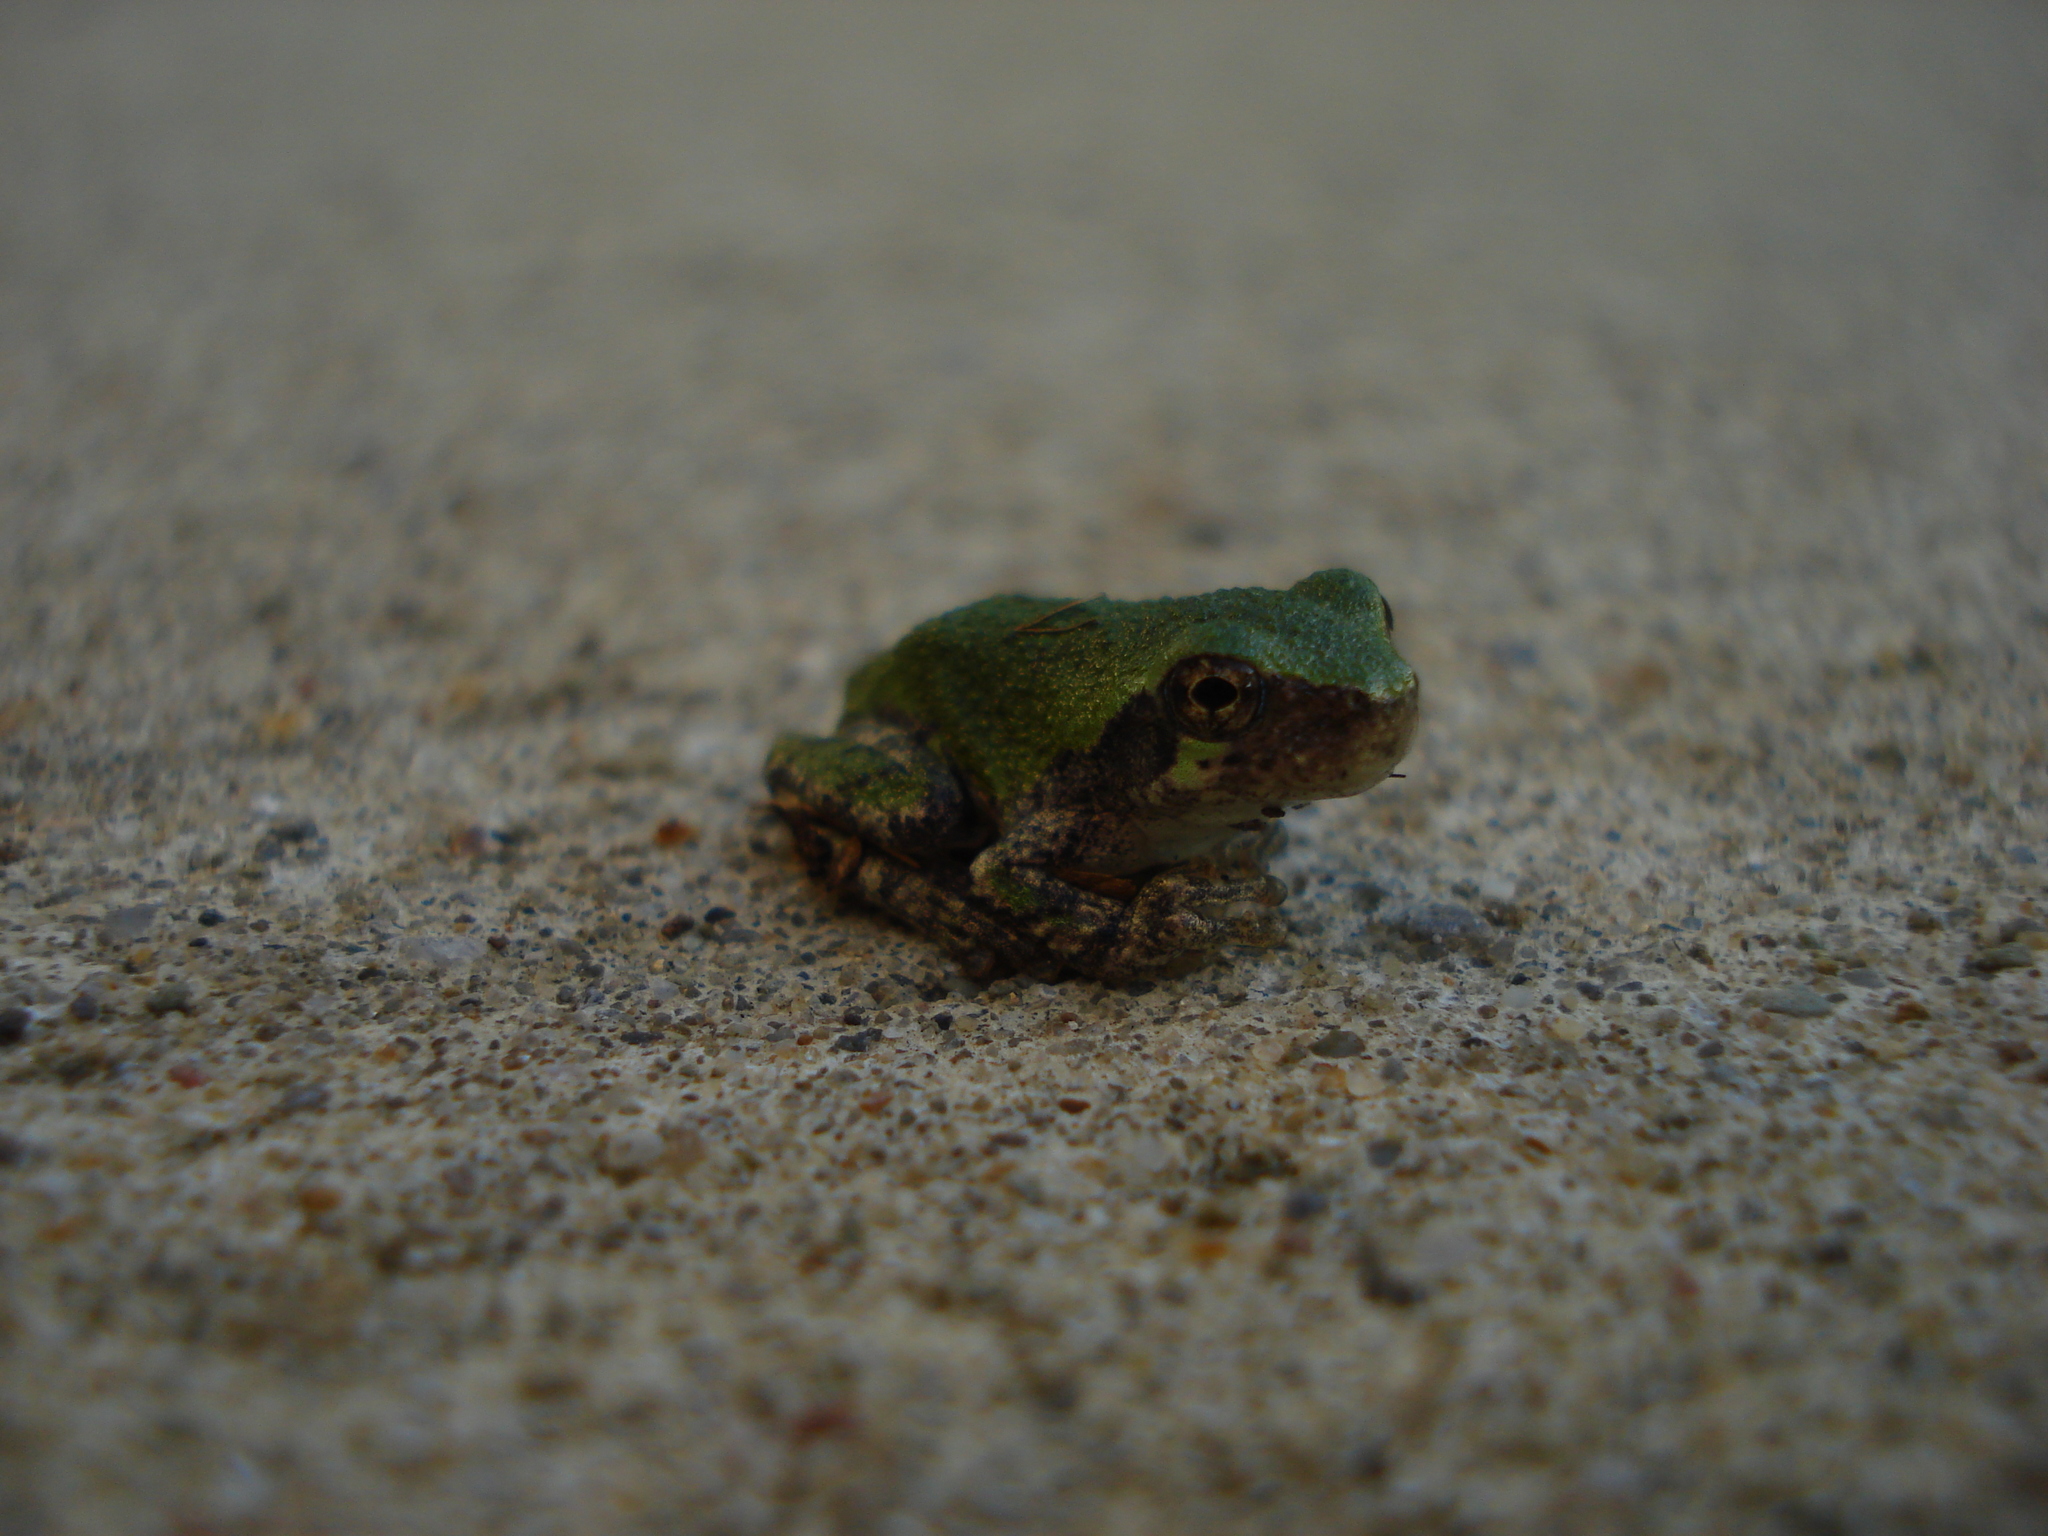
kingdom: Animalia
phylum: Chordata
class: Amphibia
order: Anura
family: Hylidae
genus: Dryophytes
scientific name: Dryophytes versicolor
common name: Gray treefrog
